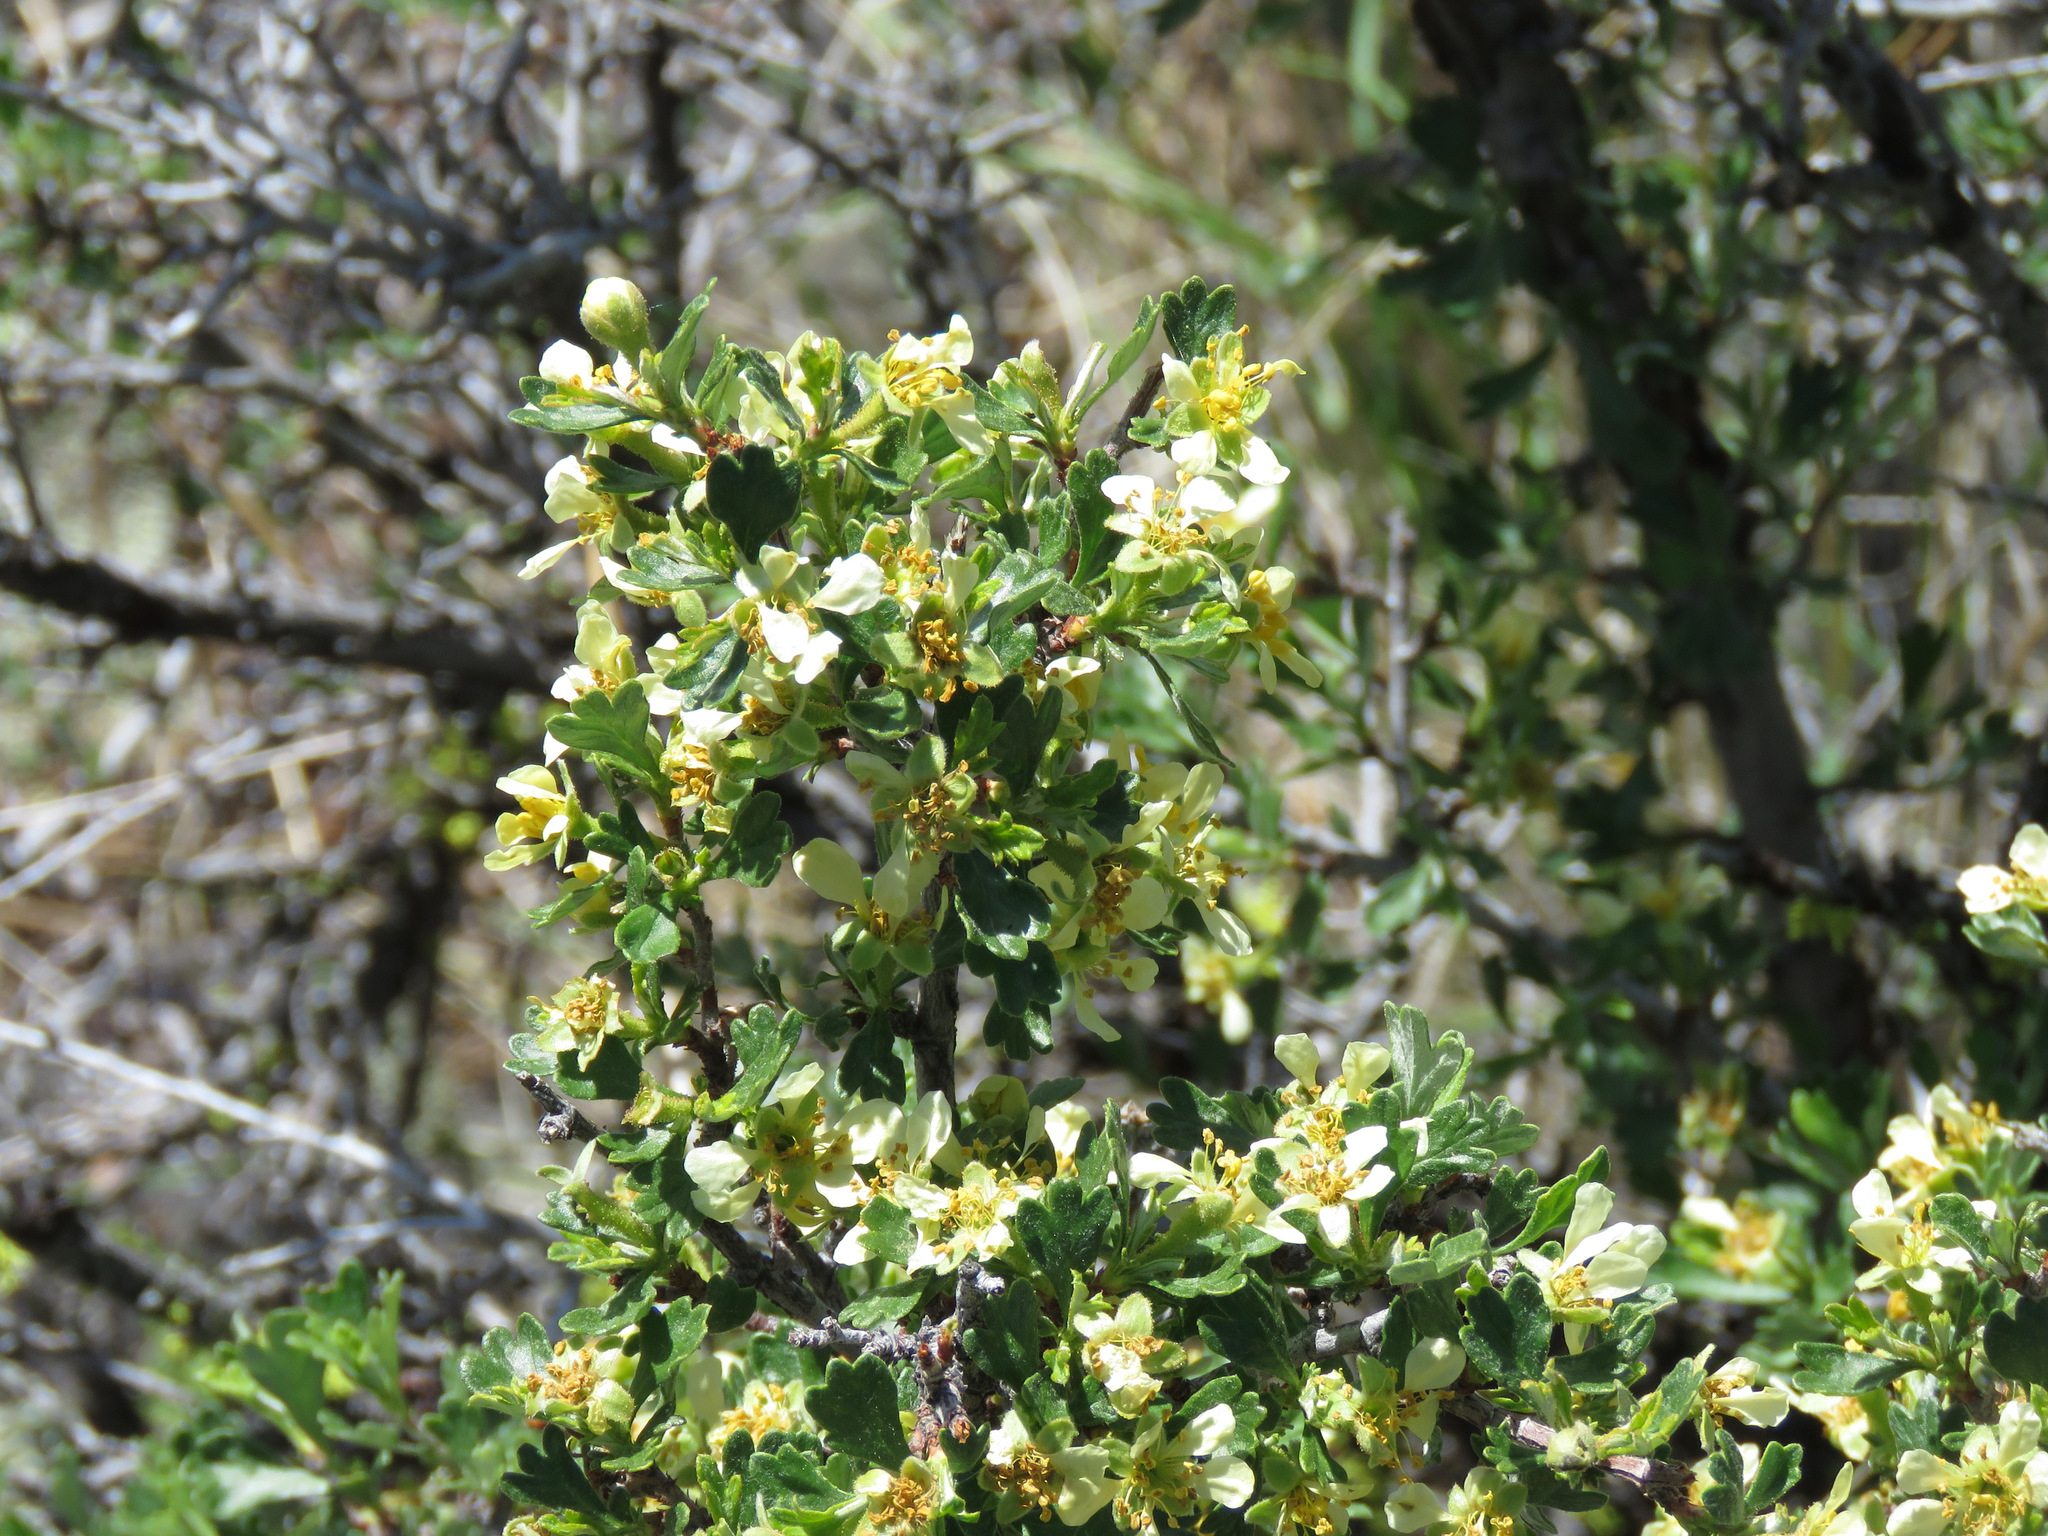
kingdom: Plantae
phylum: Tracheophyta
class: Magnoliopsida
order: Rosales
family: Rosaceae
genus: Purshia
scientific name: Purshia tridentata
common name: Antelope bitterbrush
